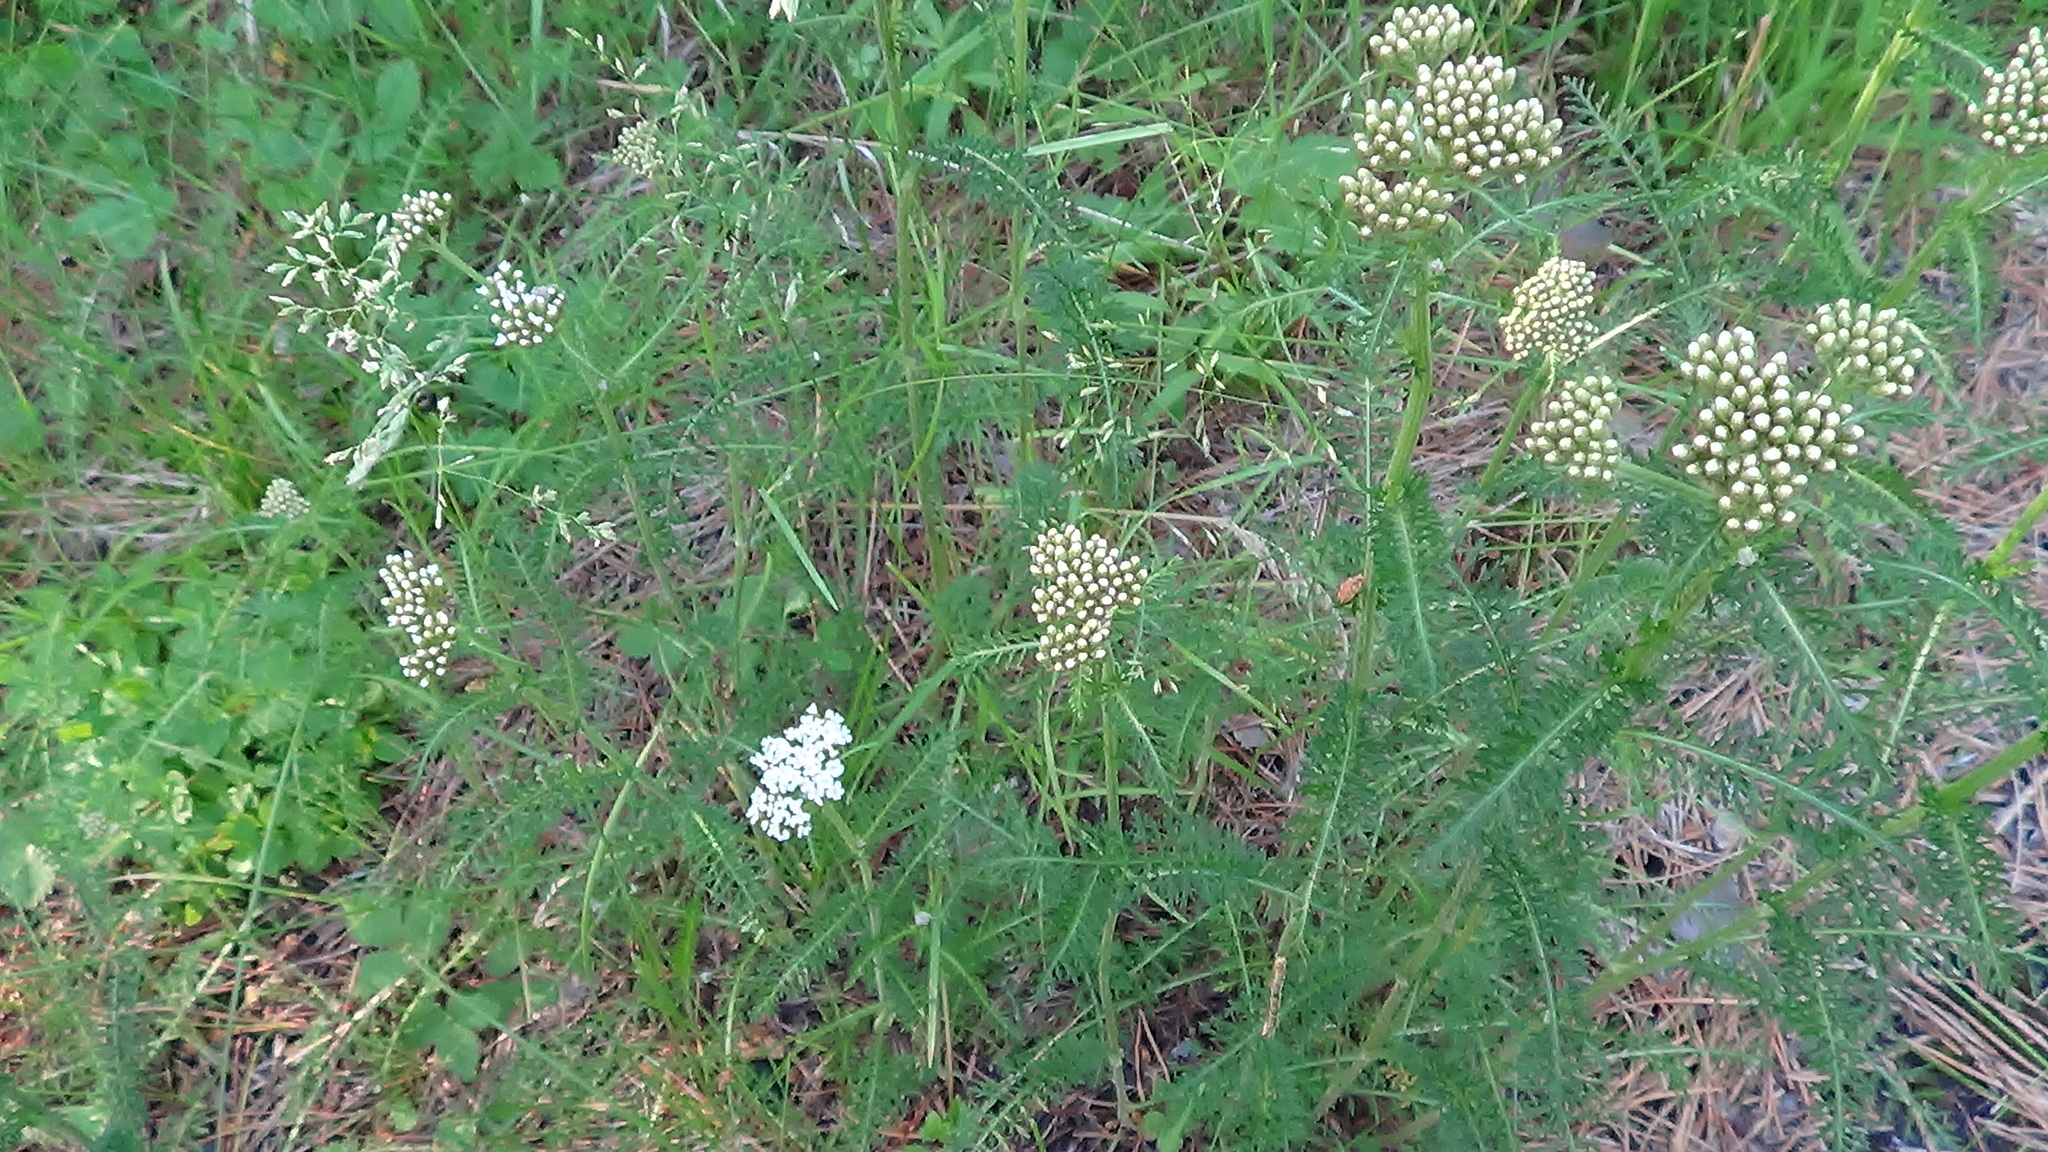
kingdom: Plantae
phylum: Tracheophyta
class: Magnoliopsida
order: Asterales
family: Asteraceae
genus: Achillea
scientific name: Achillea millefolium
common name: Yarrow
